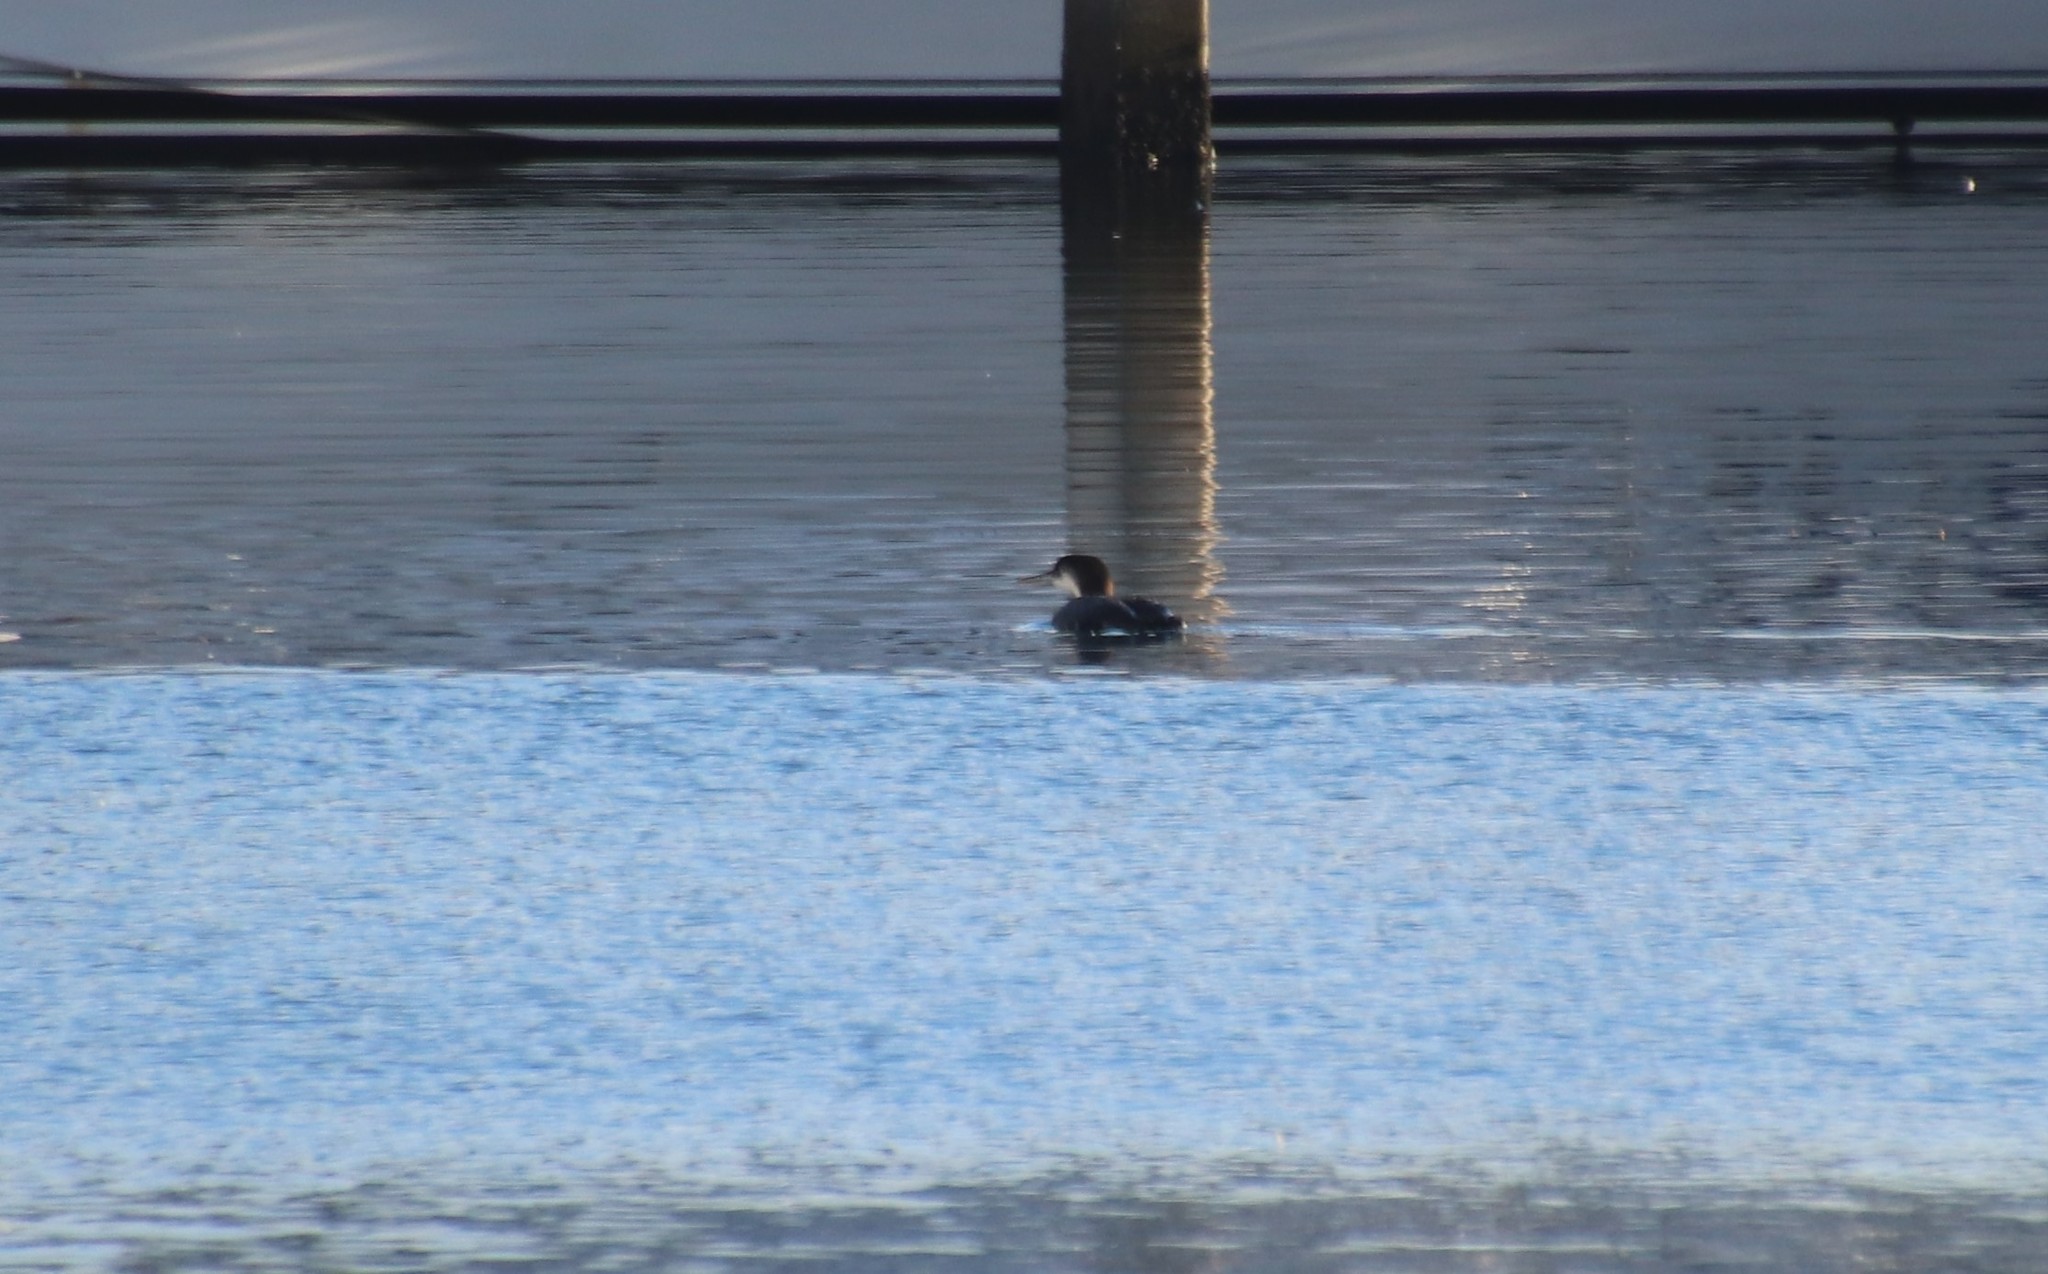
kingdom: Animalia
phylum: Chordata
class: Aves
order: Gaviiformes
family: Gaviidae
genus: Gavia
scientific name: Gavia immer
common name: Common loon
